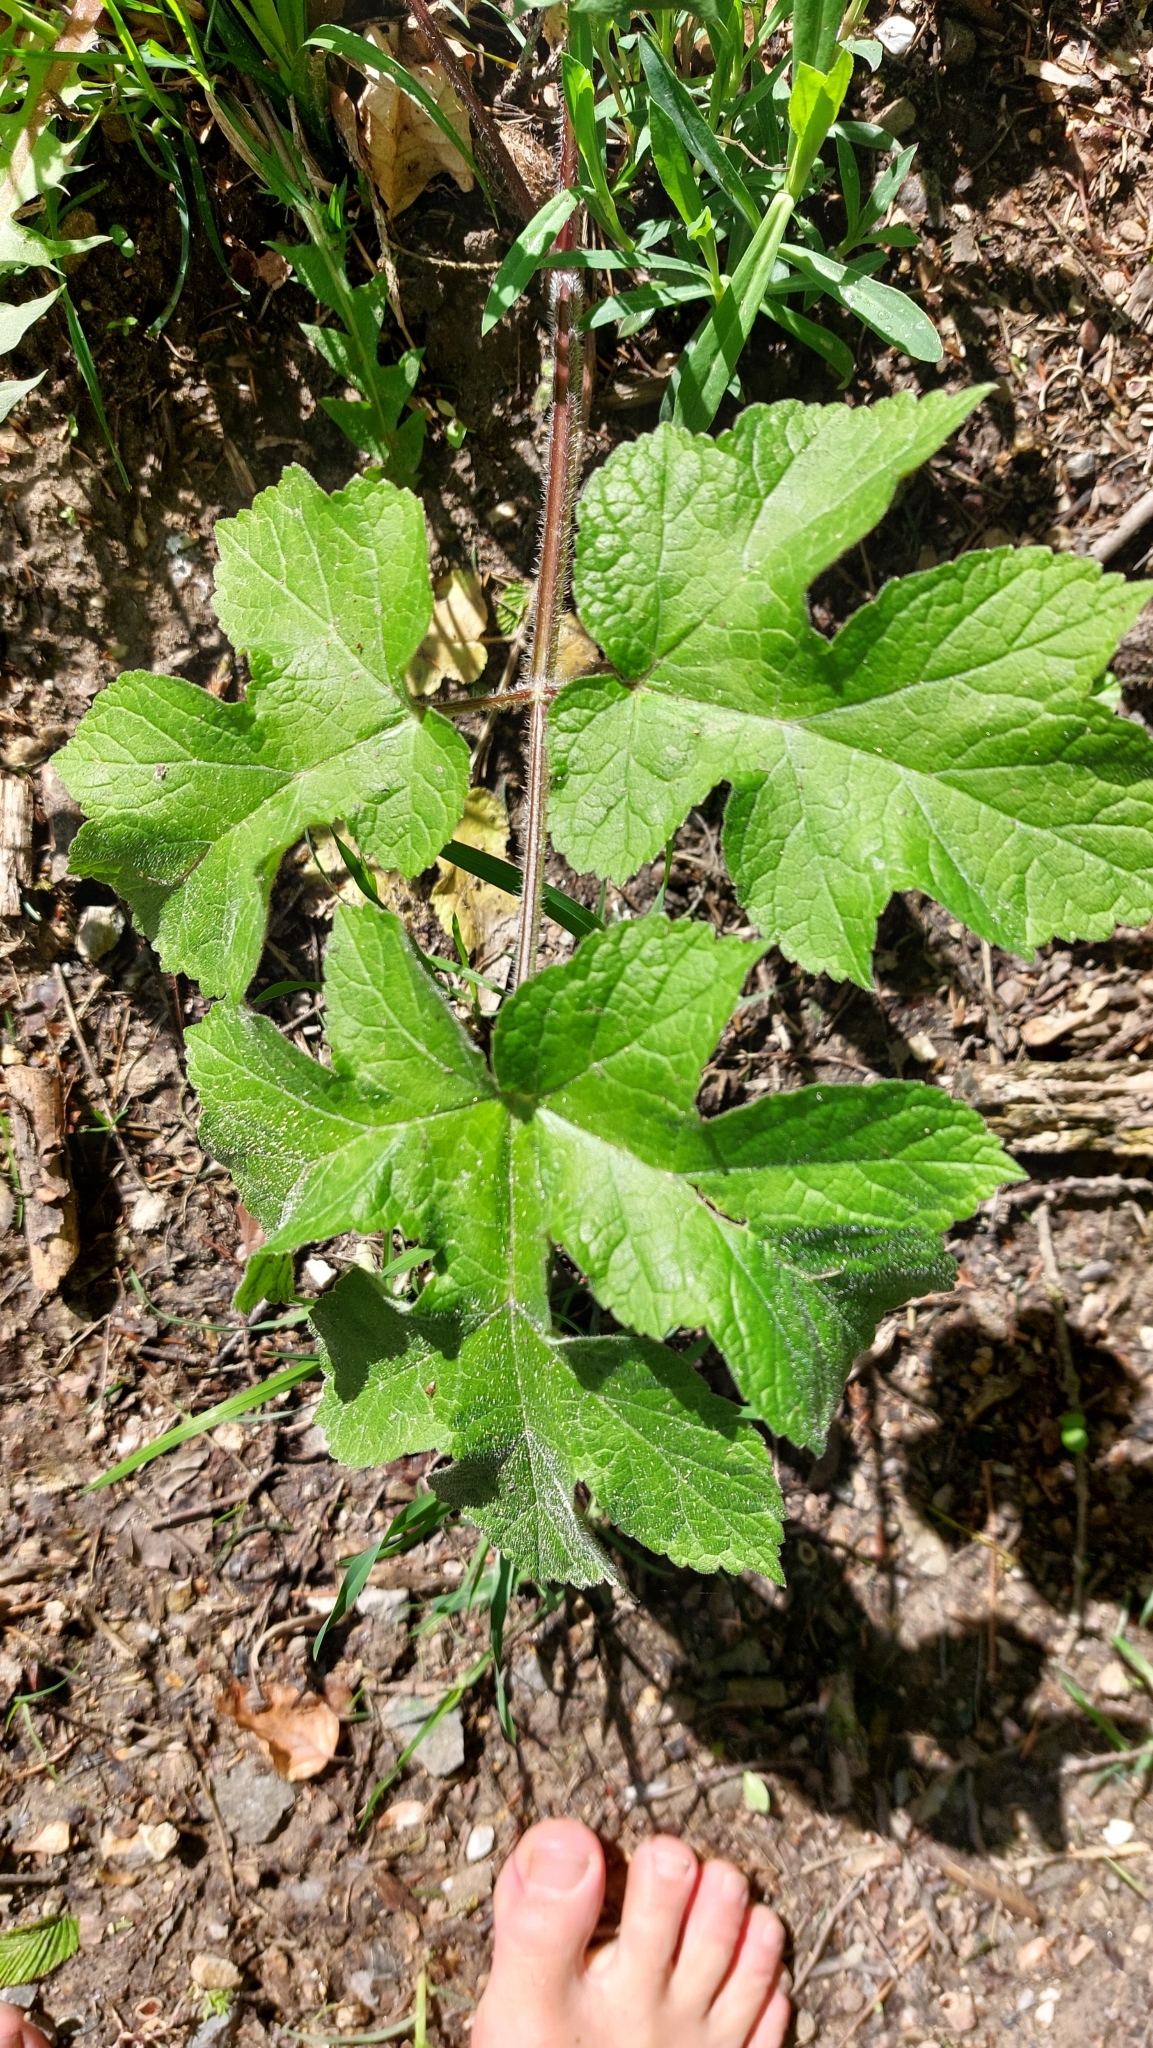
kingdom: Plantae
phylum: Tracheophyta
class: Magnoliopsida
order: Apiales
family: Apiaceae
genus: Heracleum
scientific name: Heracleum sphondylium
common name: Hogweed
